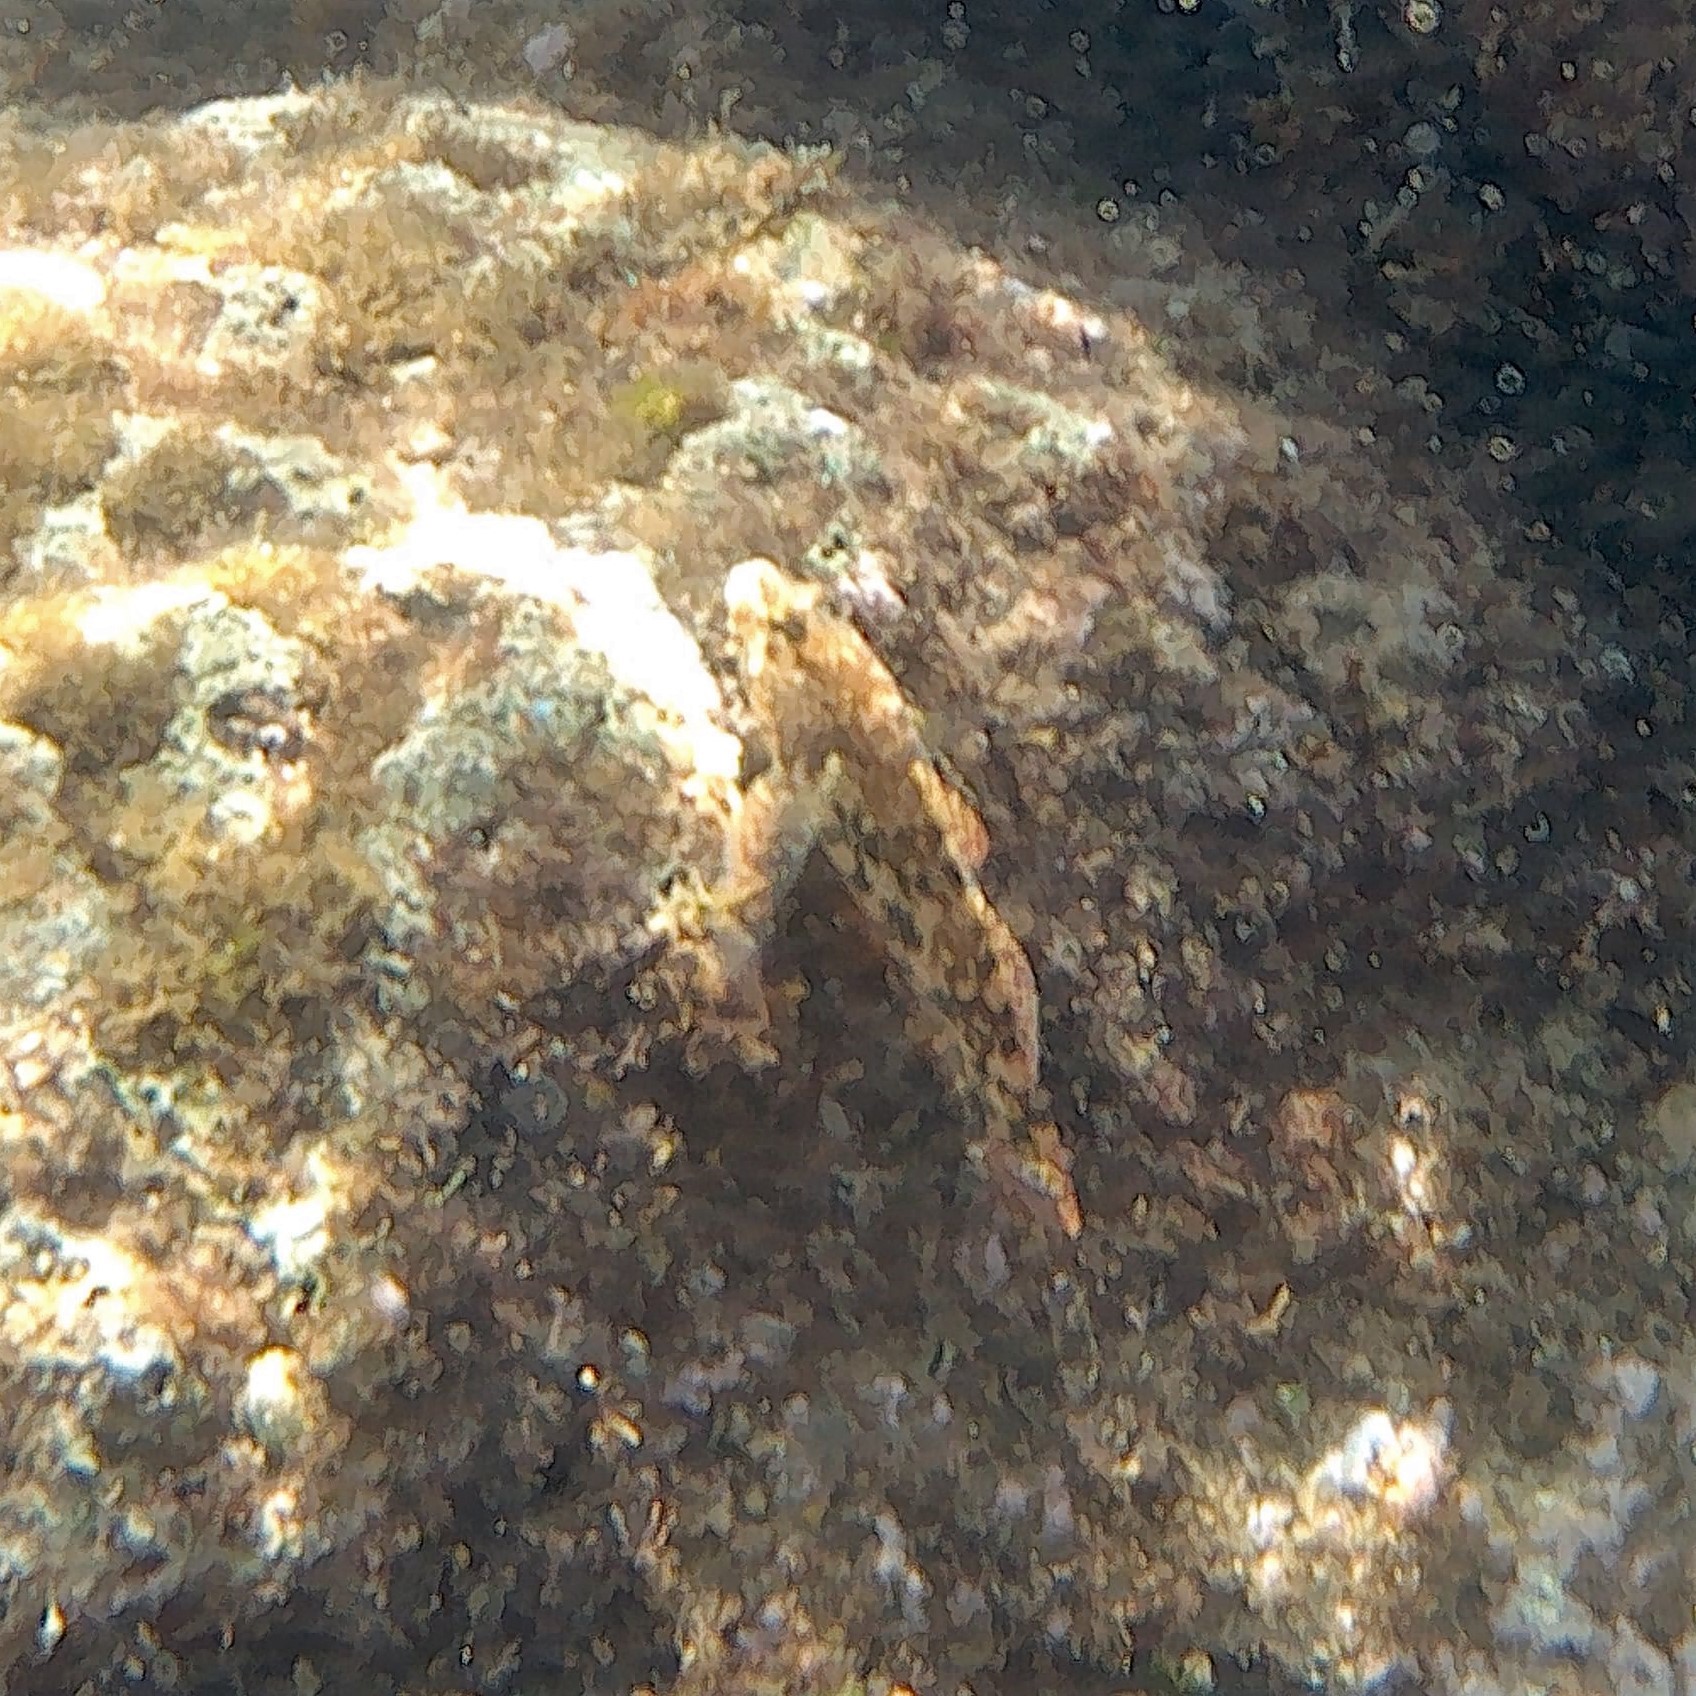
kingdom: Animalia
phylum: Chordata
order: Perciformes
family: Gobiidae
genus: Gobius
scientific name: Gobius cobitis
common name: Giant goby
